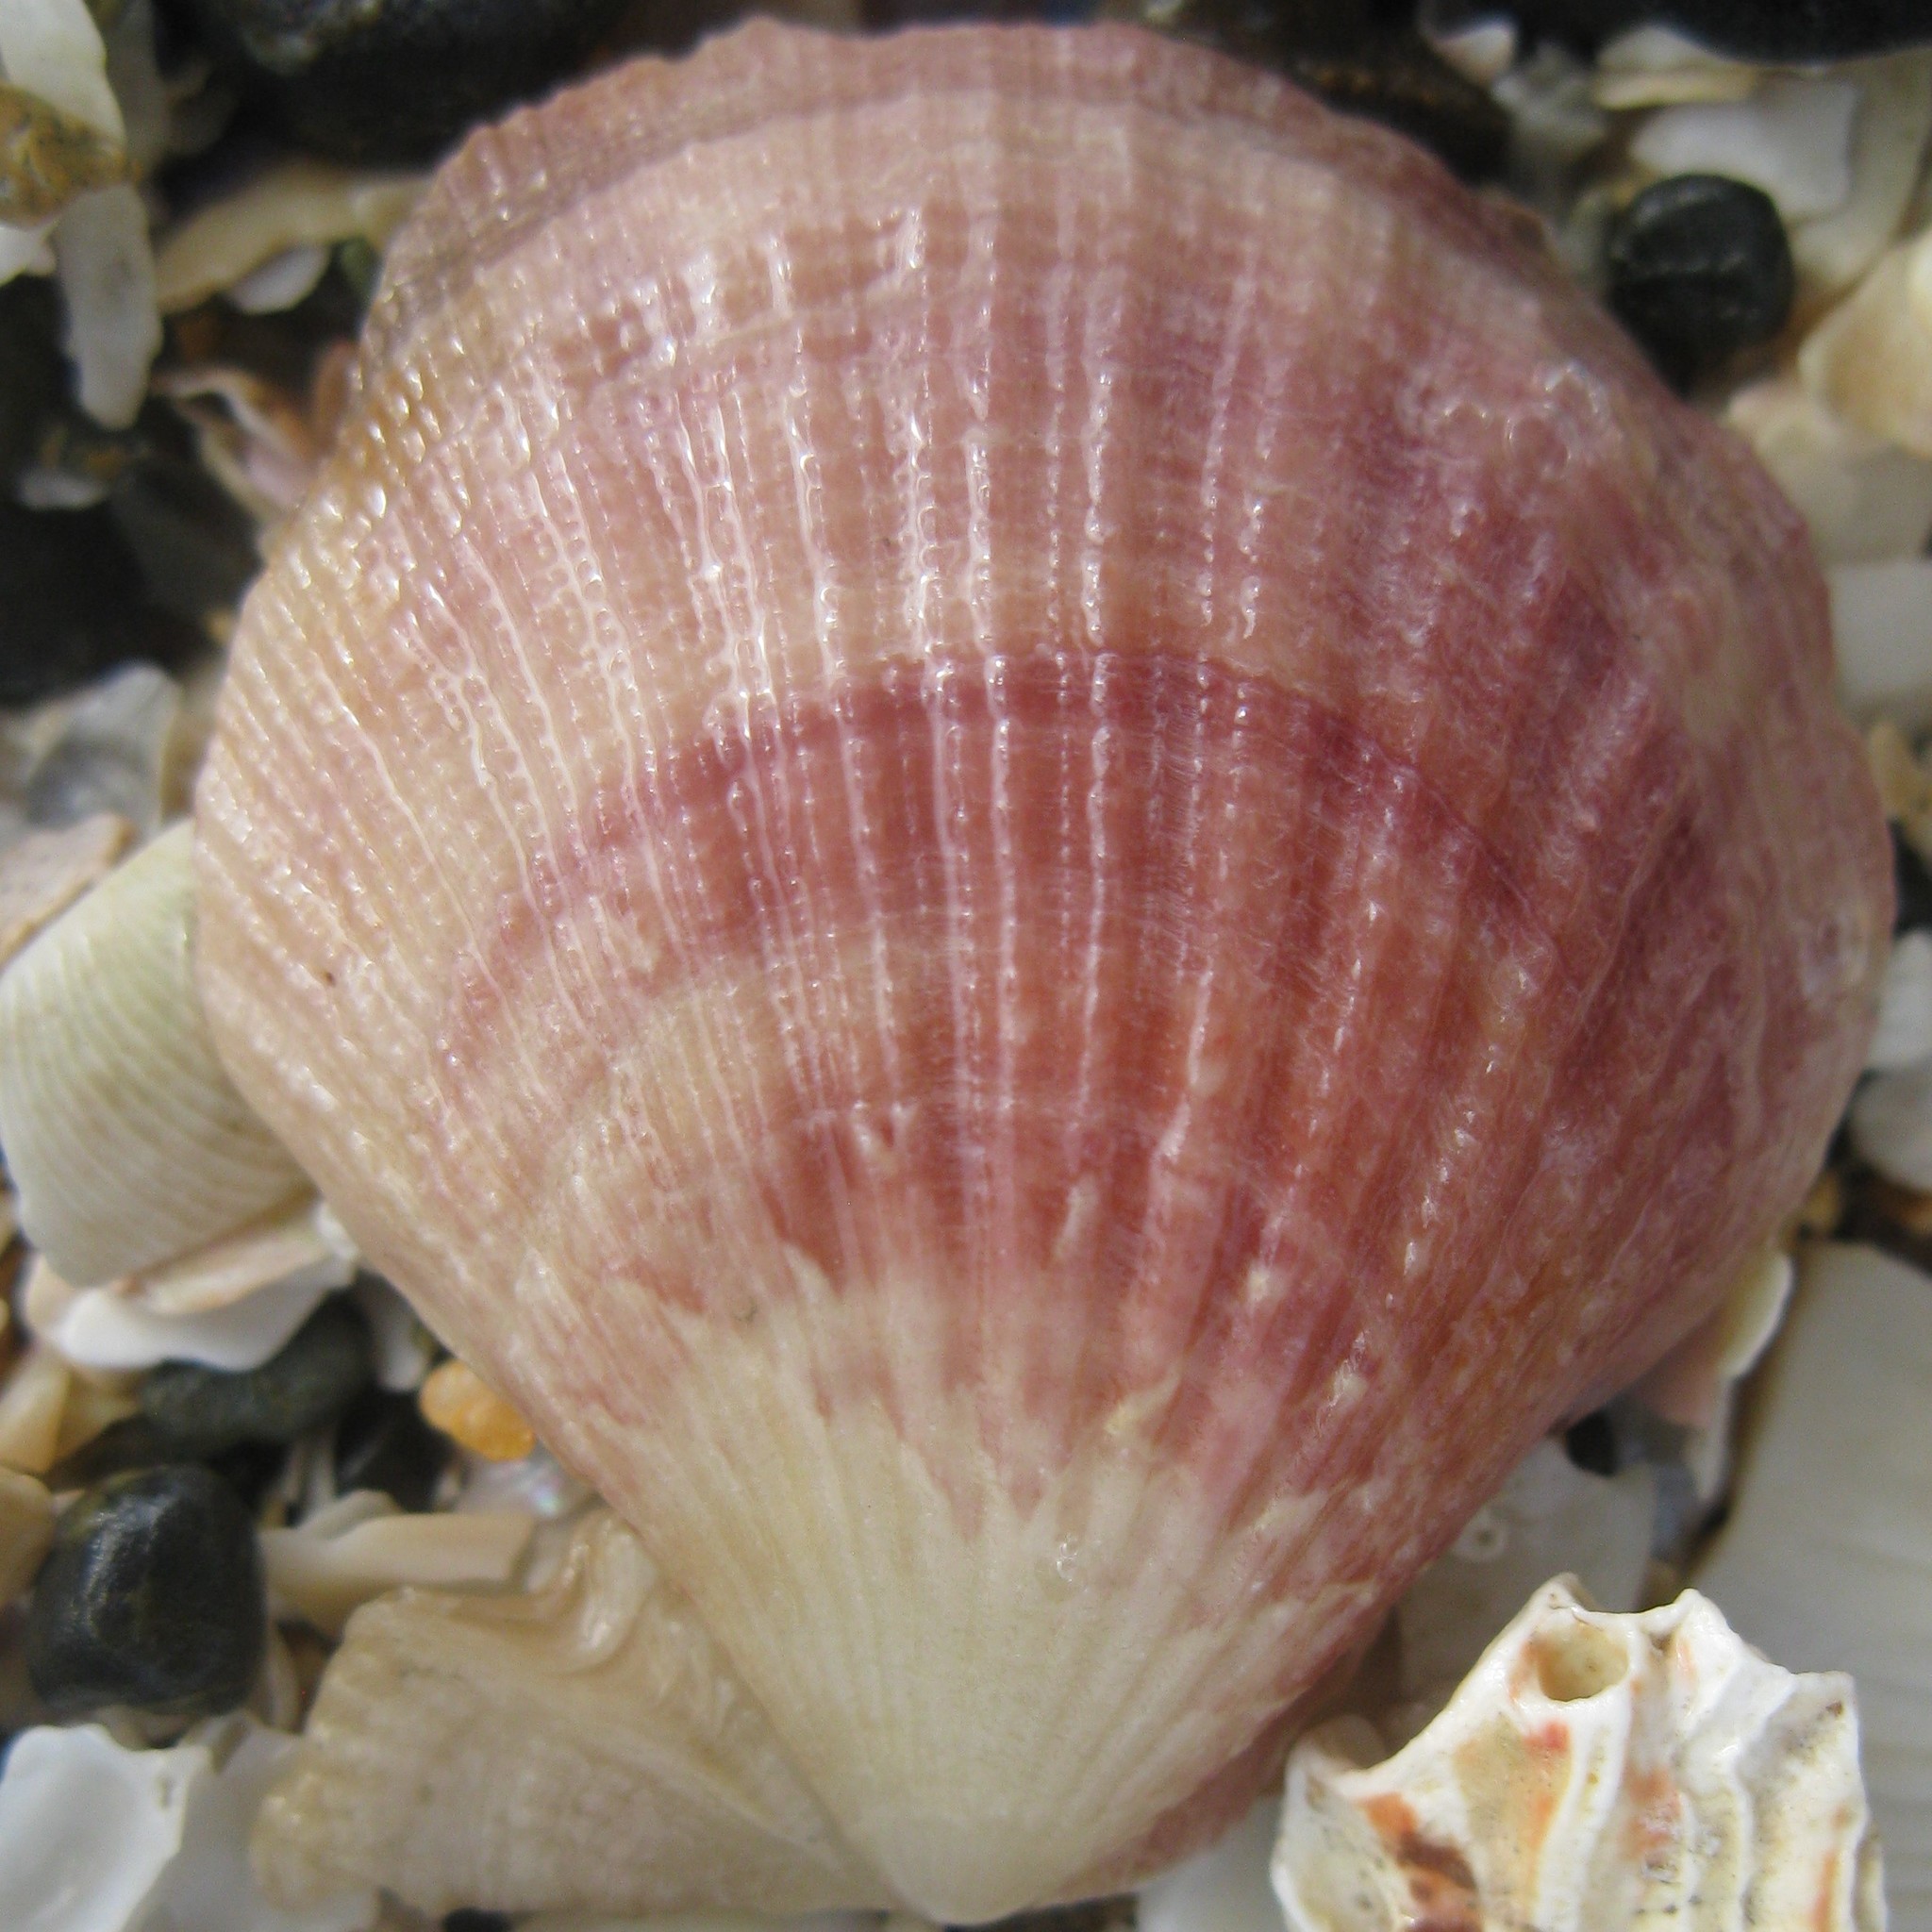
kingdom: Animalia
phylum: Mollusca
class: Bivalvia
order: Pectinida
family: Pectinidae
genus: Talochlamys
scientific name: Talochlamys zelandiae
